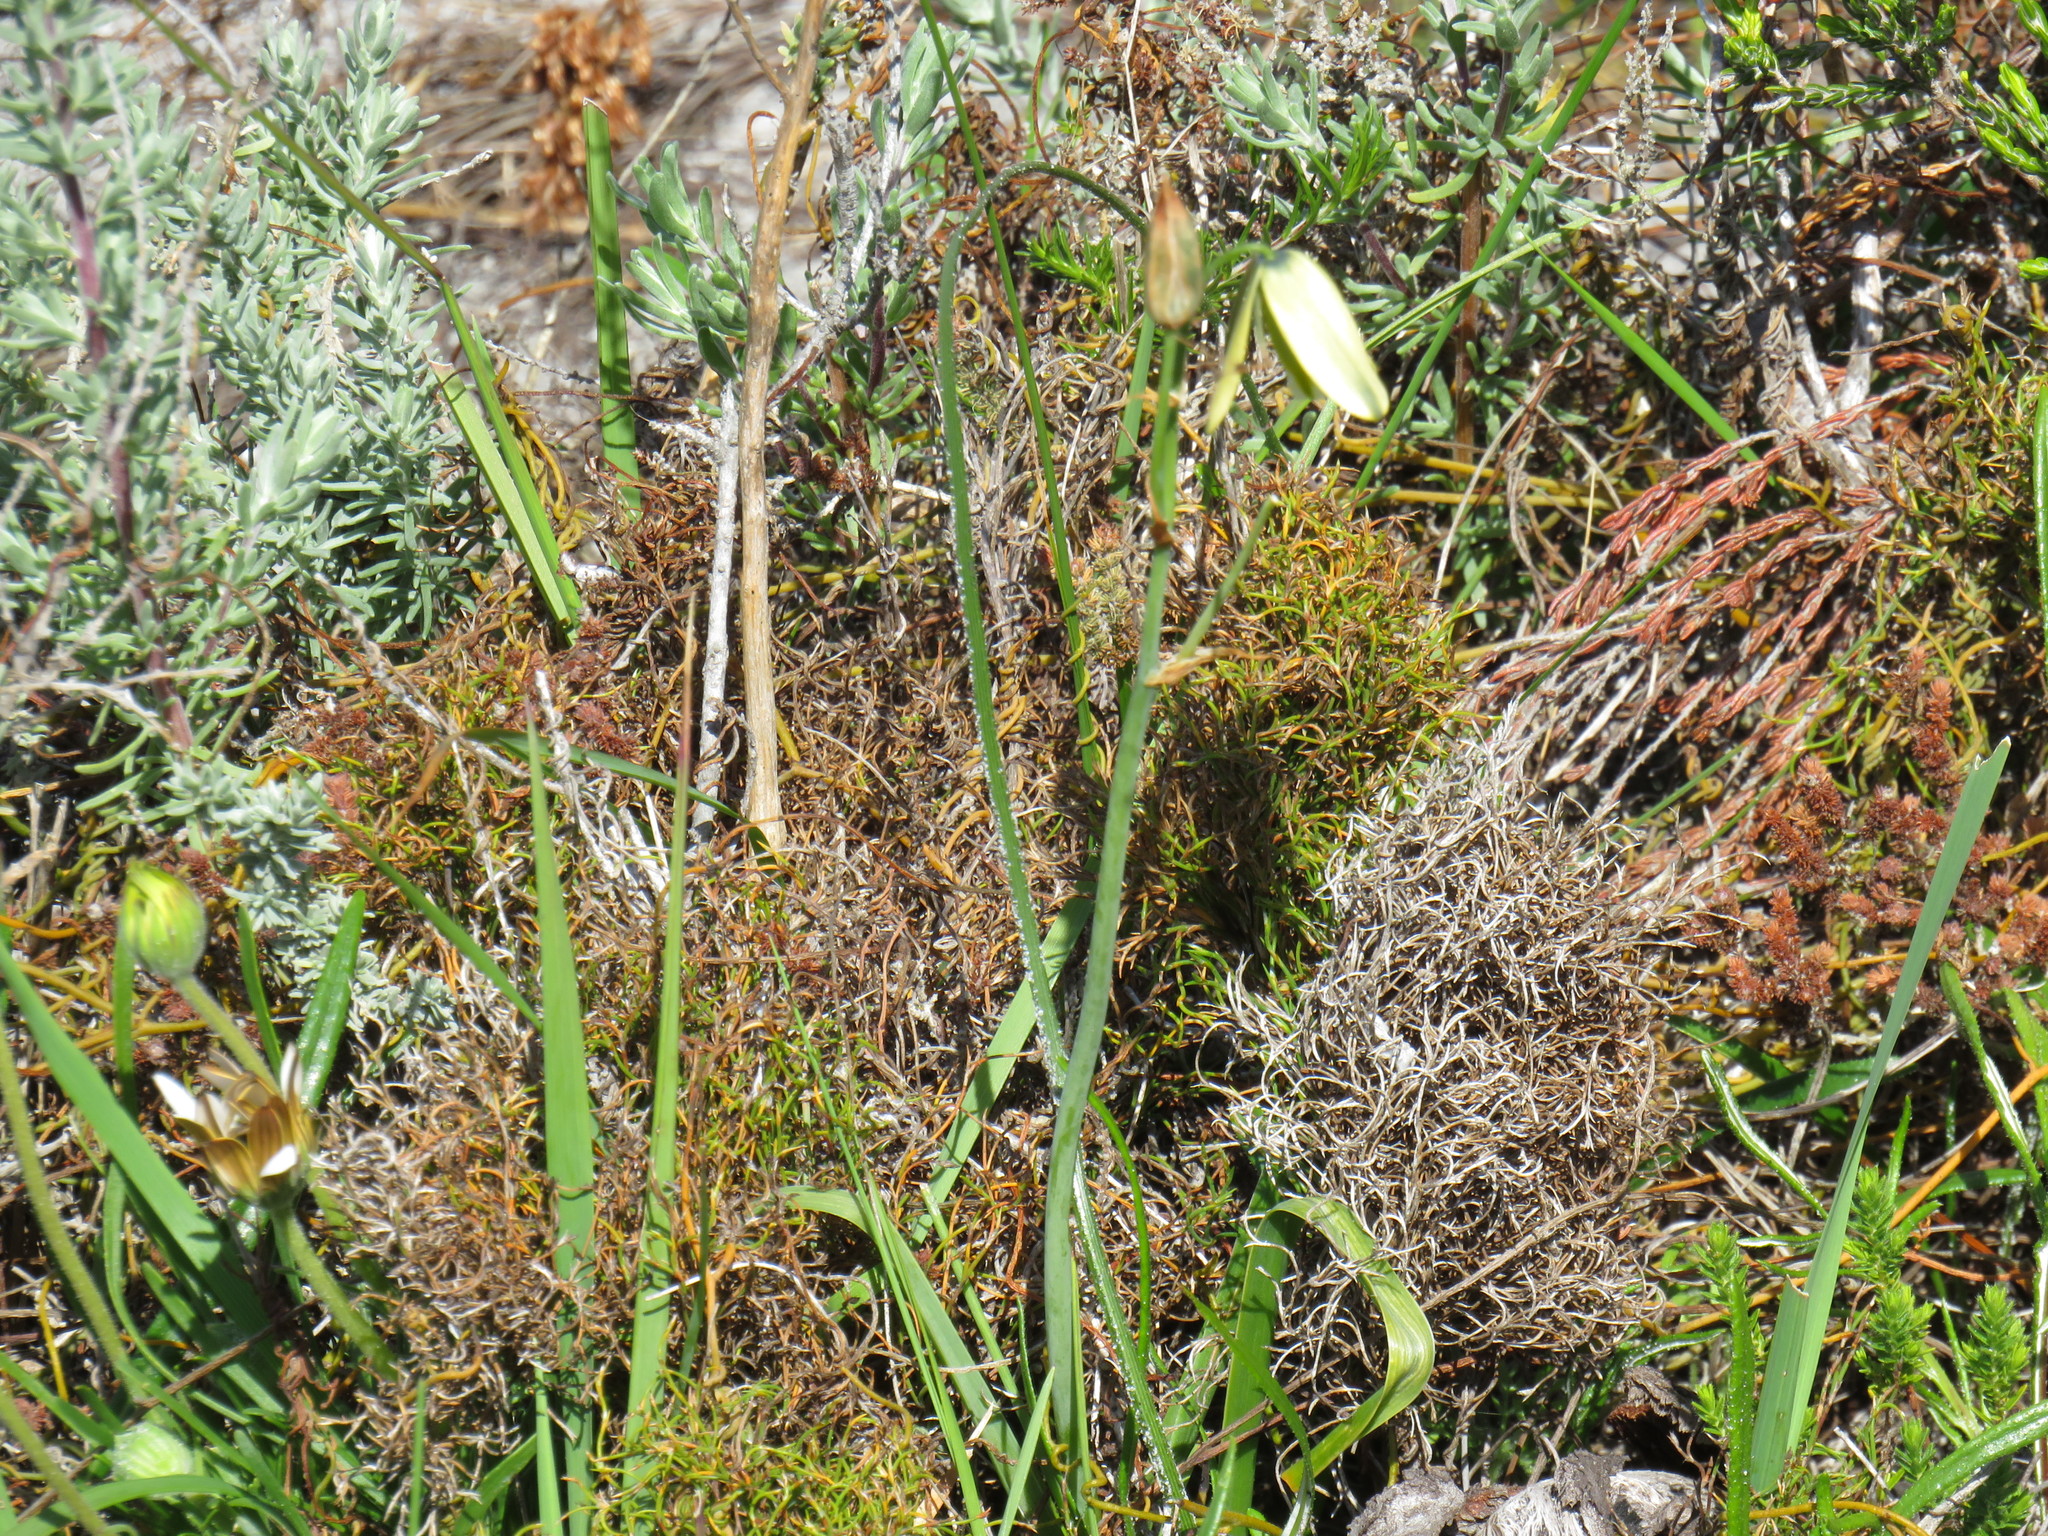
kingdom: Plantae
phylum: Tracheophyta
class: Liliopsida
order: Poales
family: Restionaceae
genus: Restio
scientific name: Restio cincinnatus
